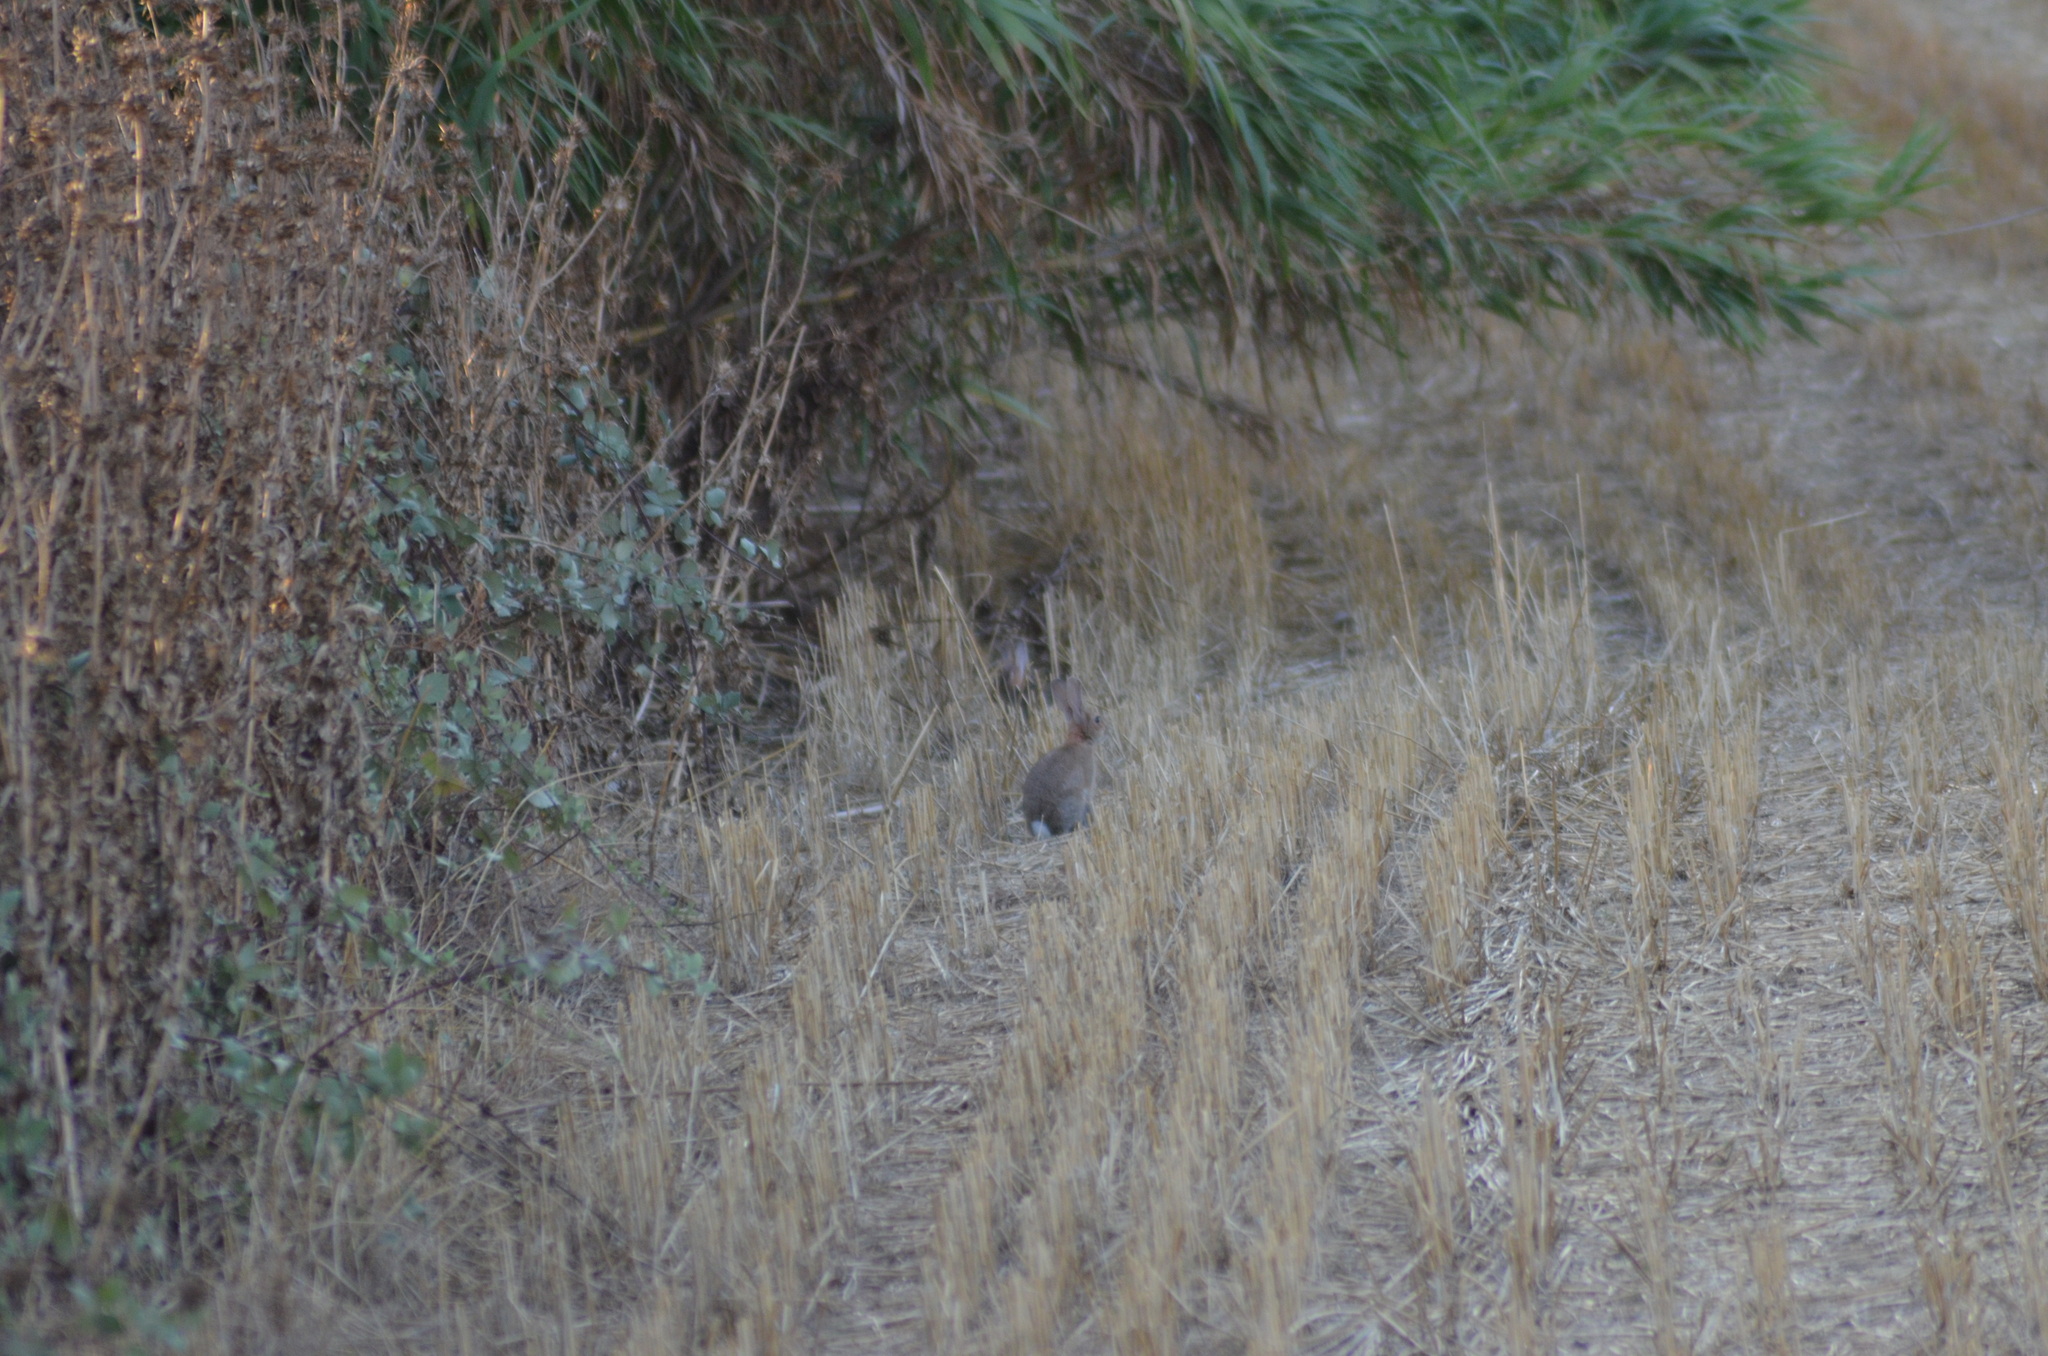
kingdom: Animalia
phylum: Chordata
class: Mammalia
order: Lagomorpha
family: Leporidae
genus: Oryctolagus
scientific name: Oryctolagus cuniculus
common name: European rabbit
